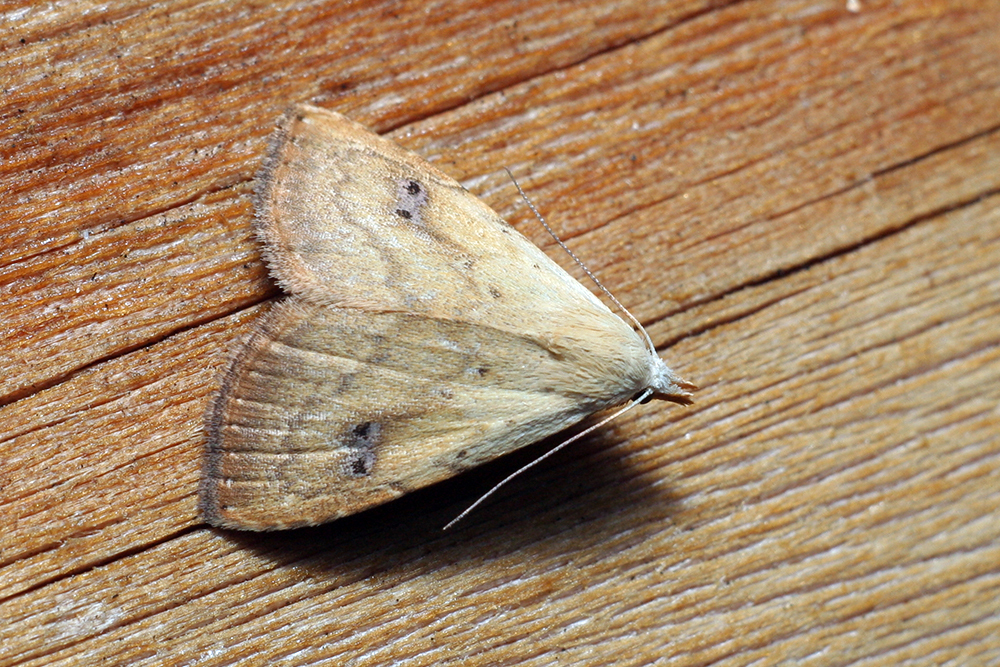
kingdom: Animalia
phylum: Arthropoda
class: Insecta
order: Lepidoptera
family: Erebidae
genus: Rivula
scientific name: Rivula sericealis
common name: Straw dot
